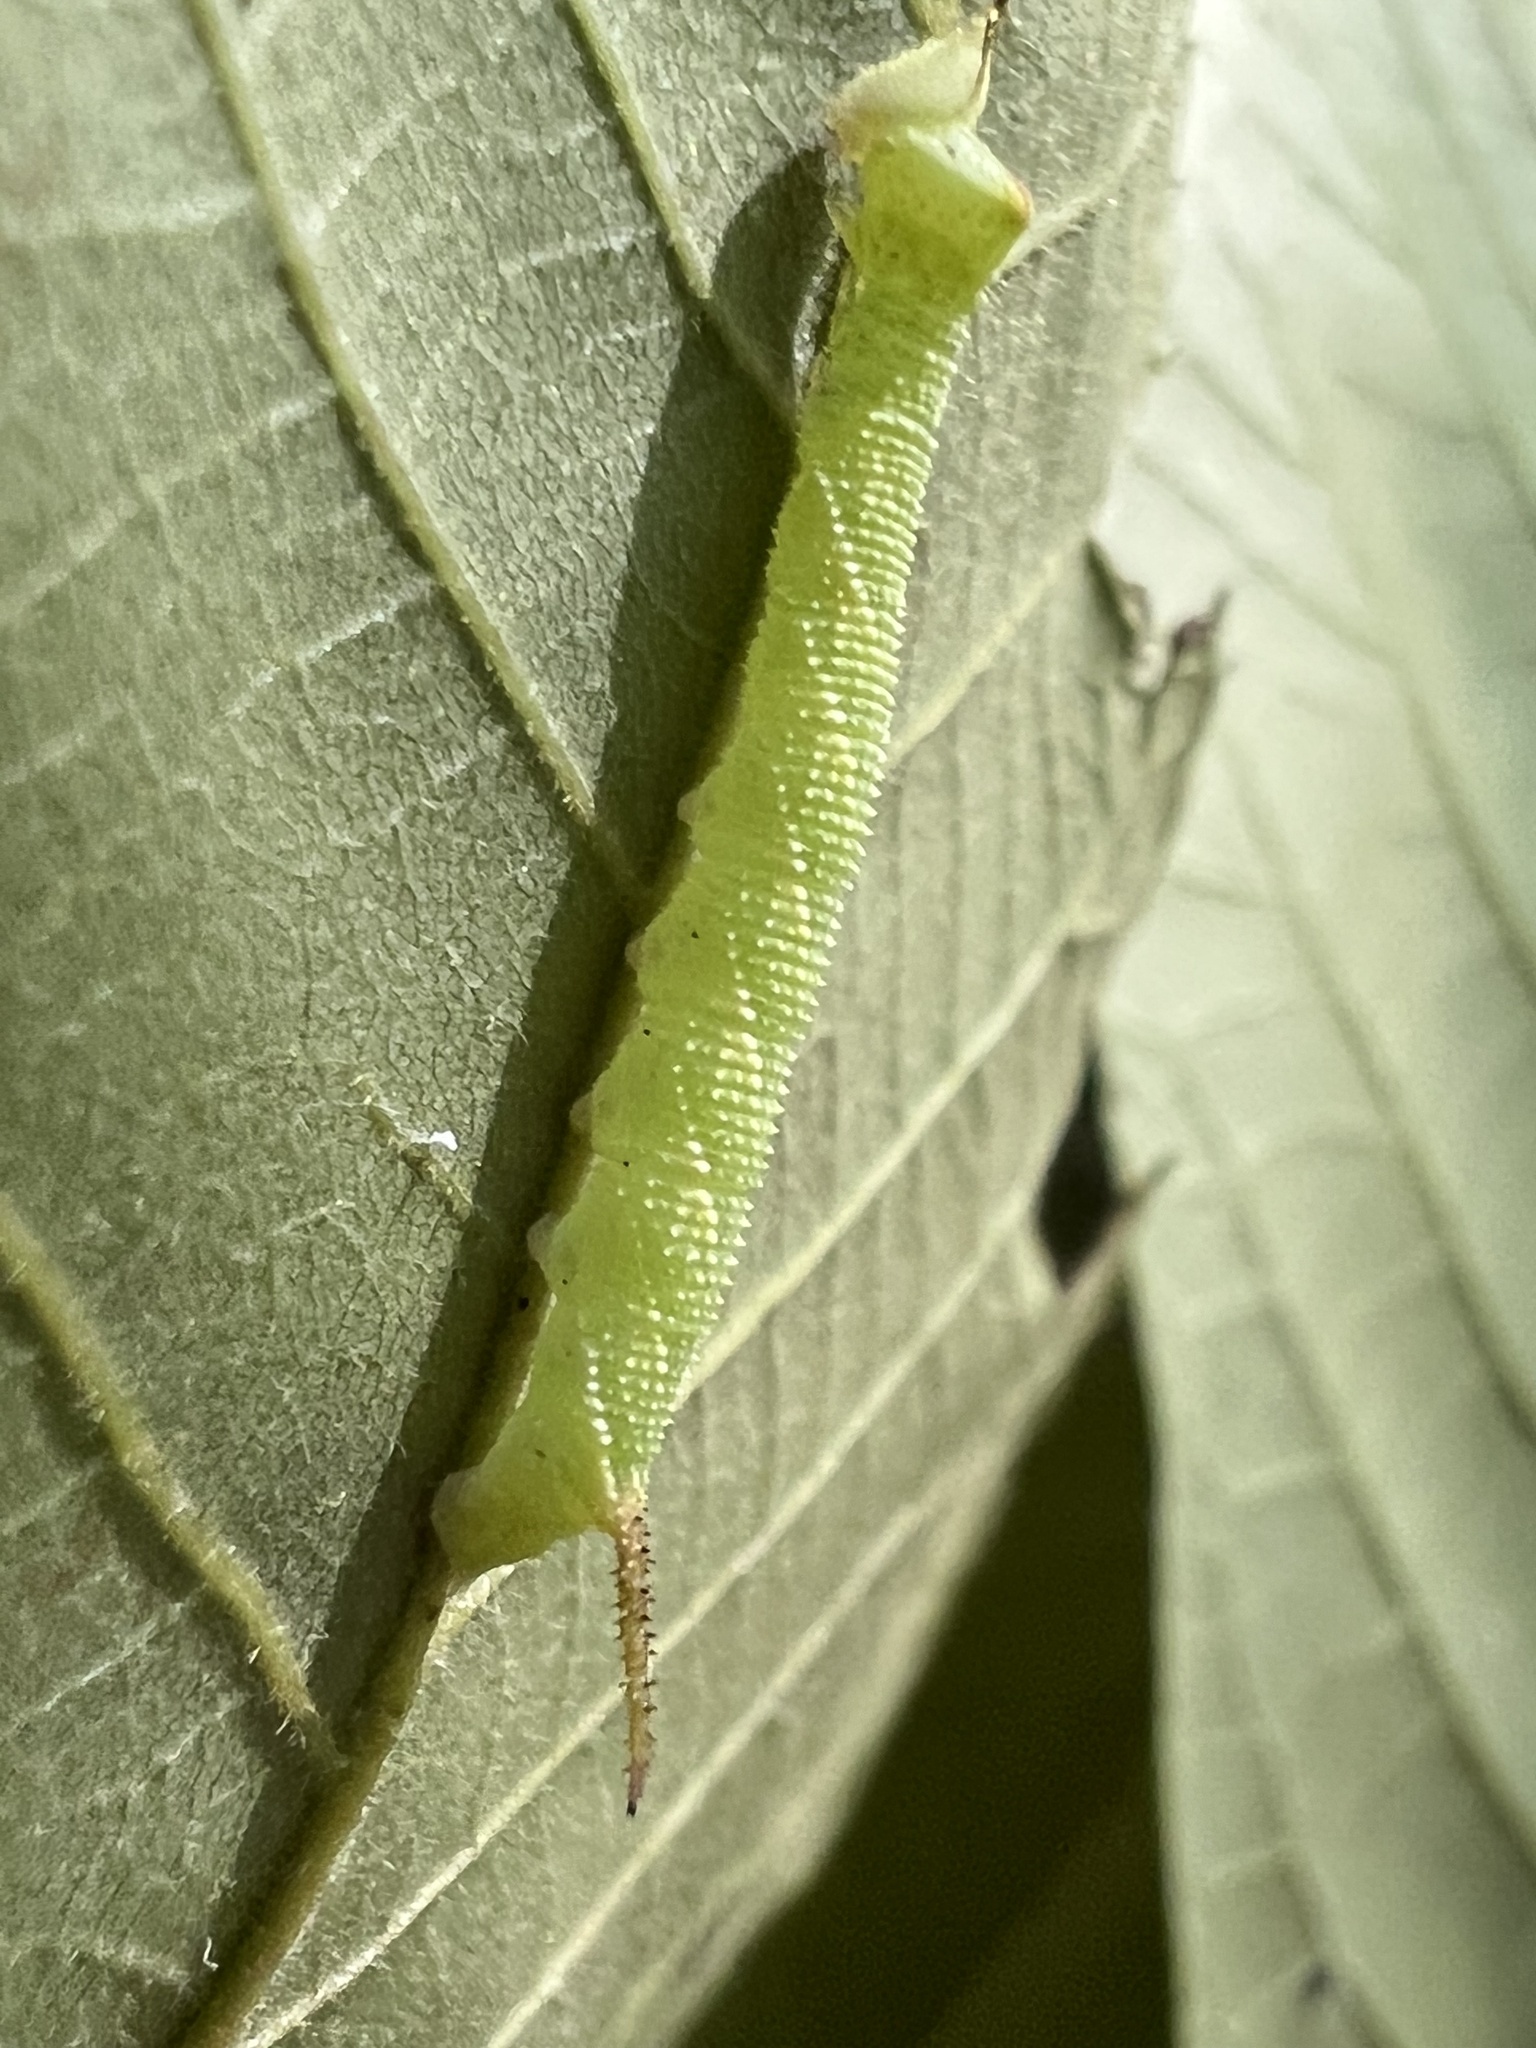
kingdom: Animalia
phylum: Arthropoda
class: Insecta
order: Lepidoptera
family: Sphingidae
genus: Amorpha
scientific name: Amorpha juglandis
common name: Walnut sphinx
